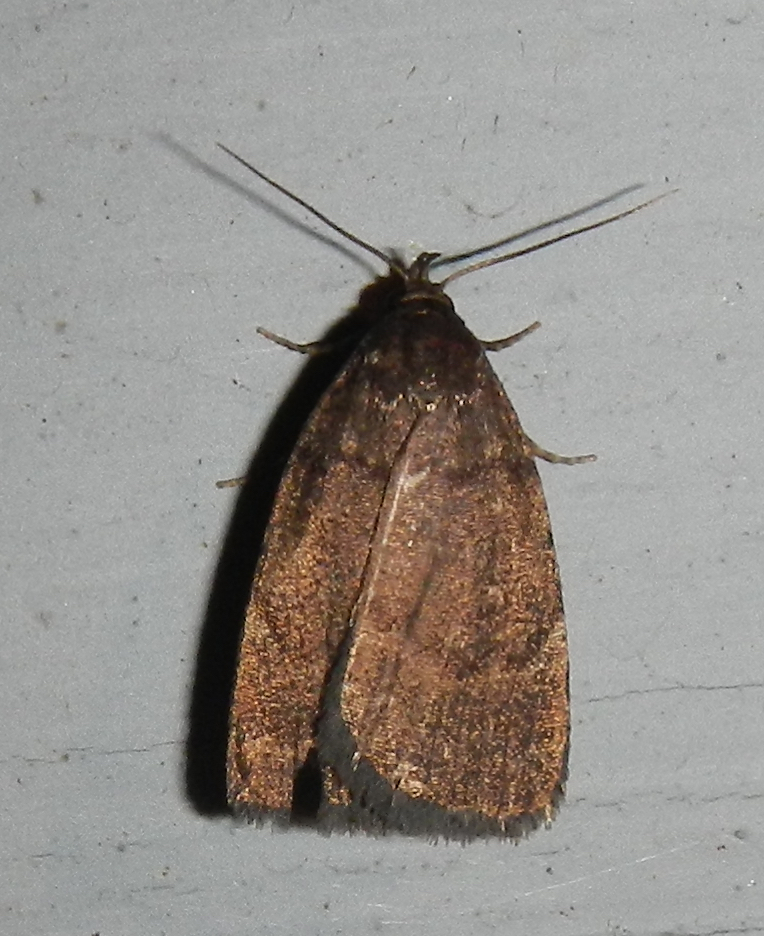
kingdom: Animalia
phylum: Arthropoda
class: Insecta
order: Lepidoptera
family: Erebidae
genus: Idia
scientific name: Idia rotundalis
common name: Rotund idia moth
